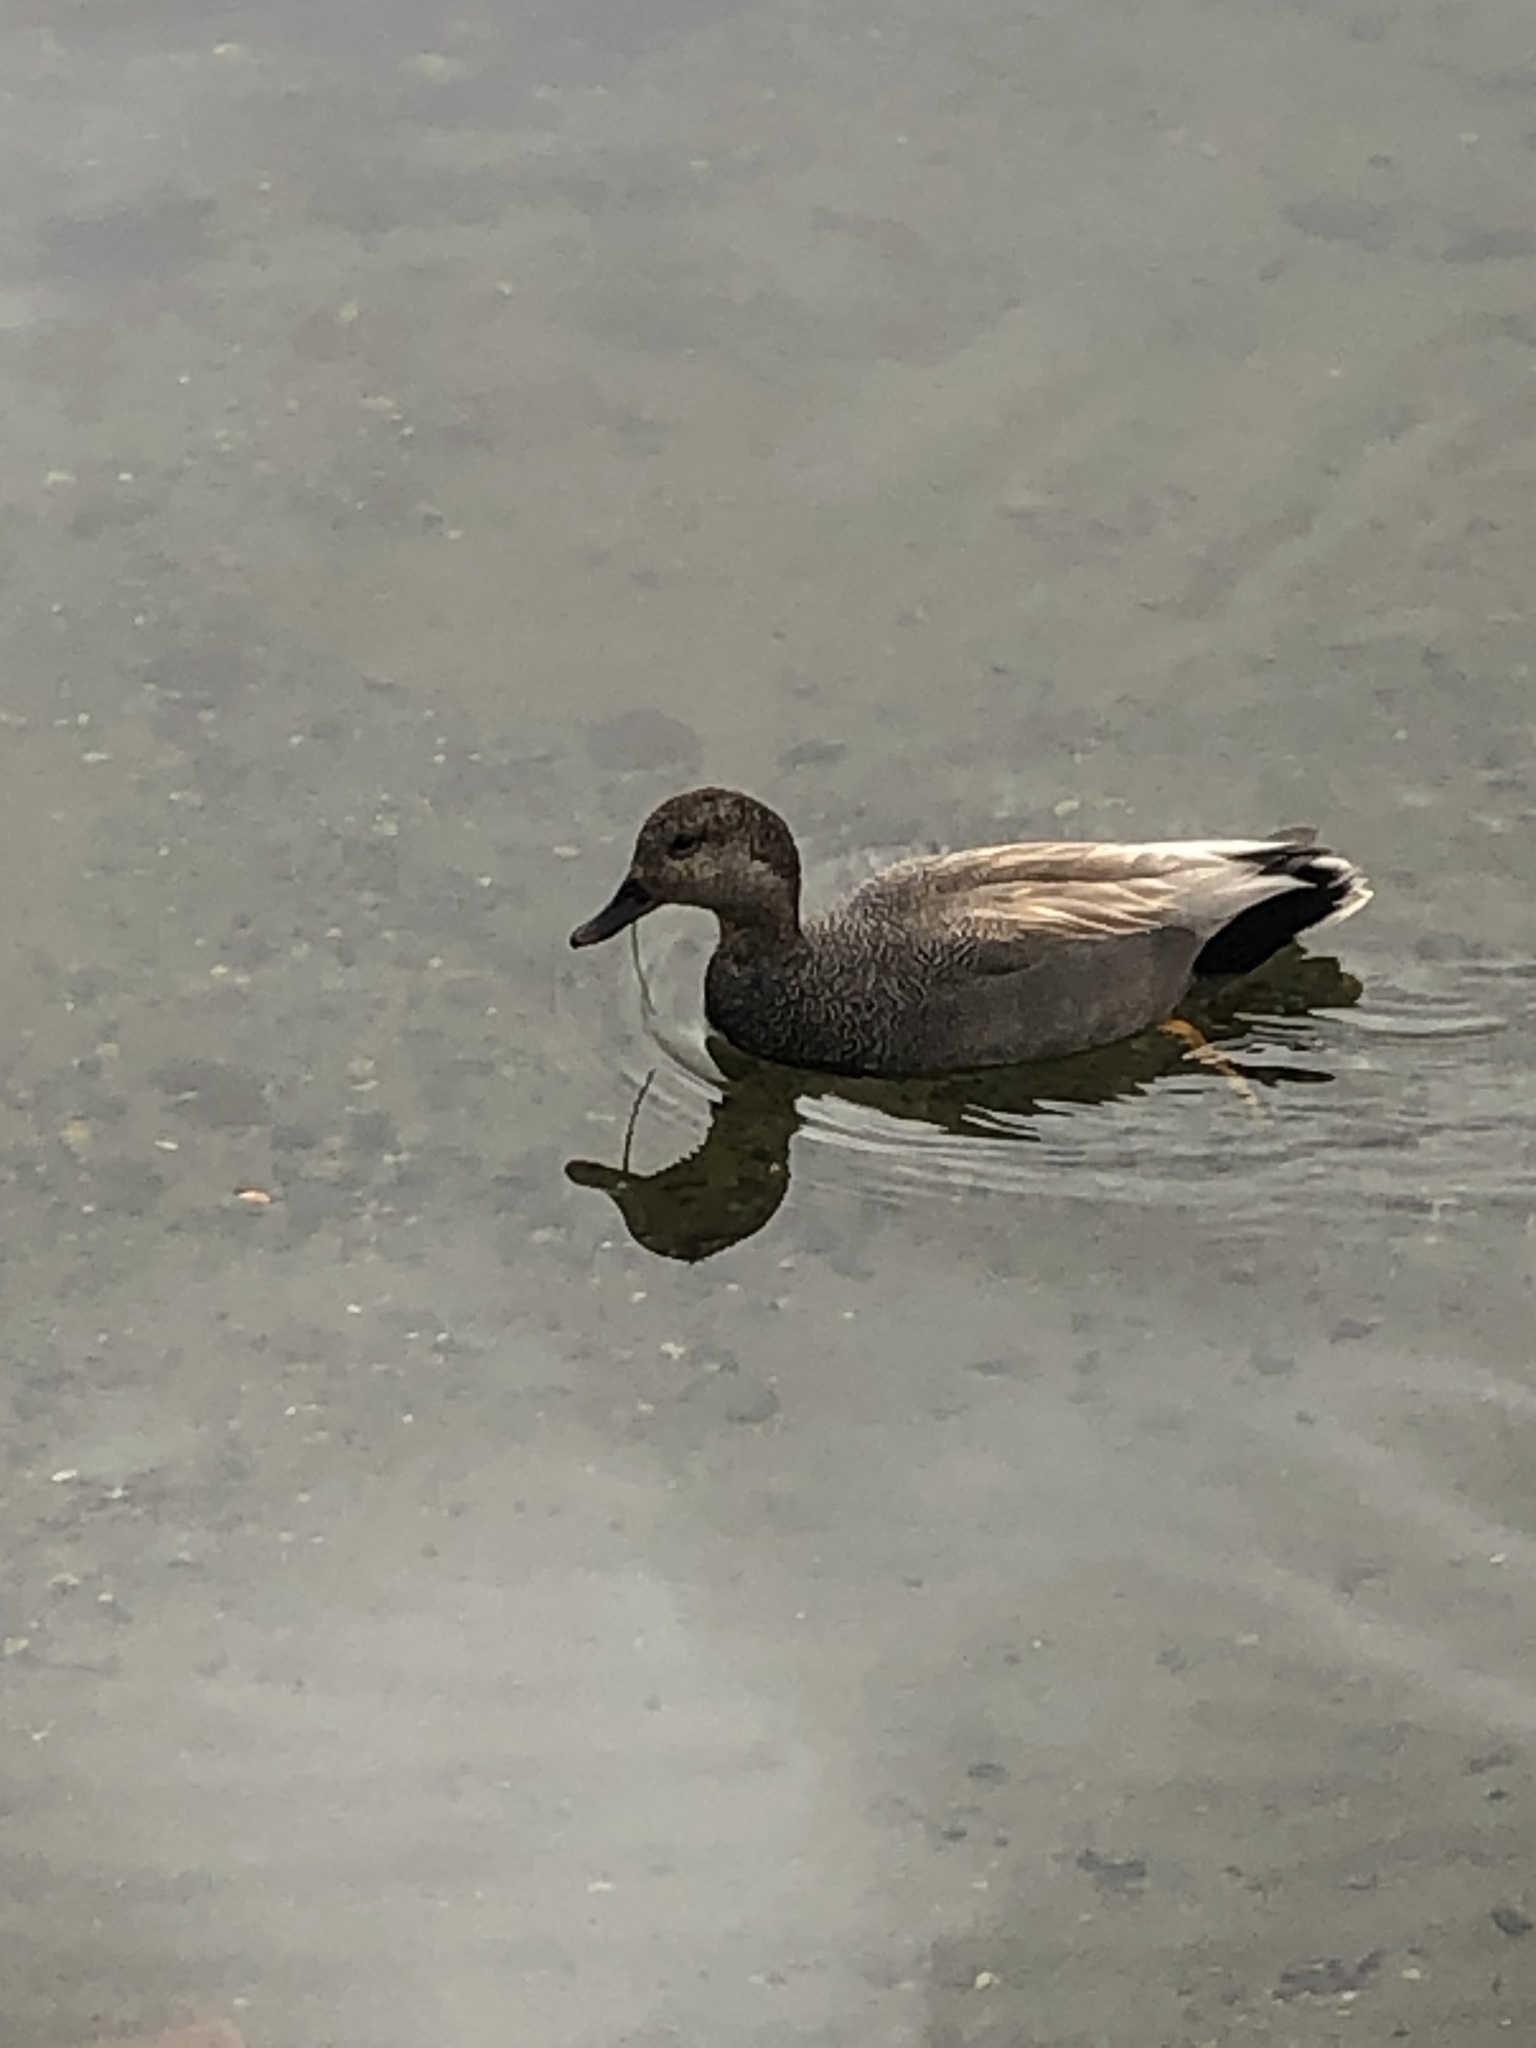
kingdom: Animalia
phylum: Chordata
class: Aves
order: Anseriformes
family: Anatidae
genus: Mareca
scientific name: Mareca strepera
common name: Gadwall
